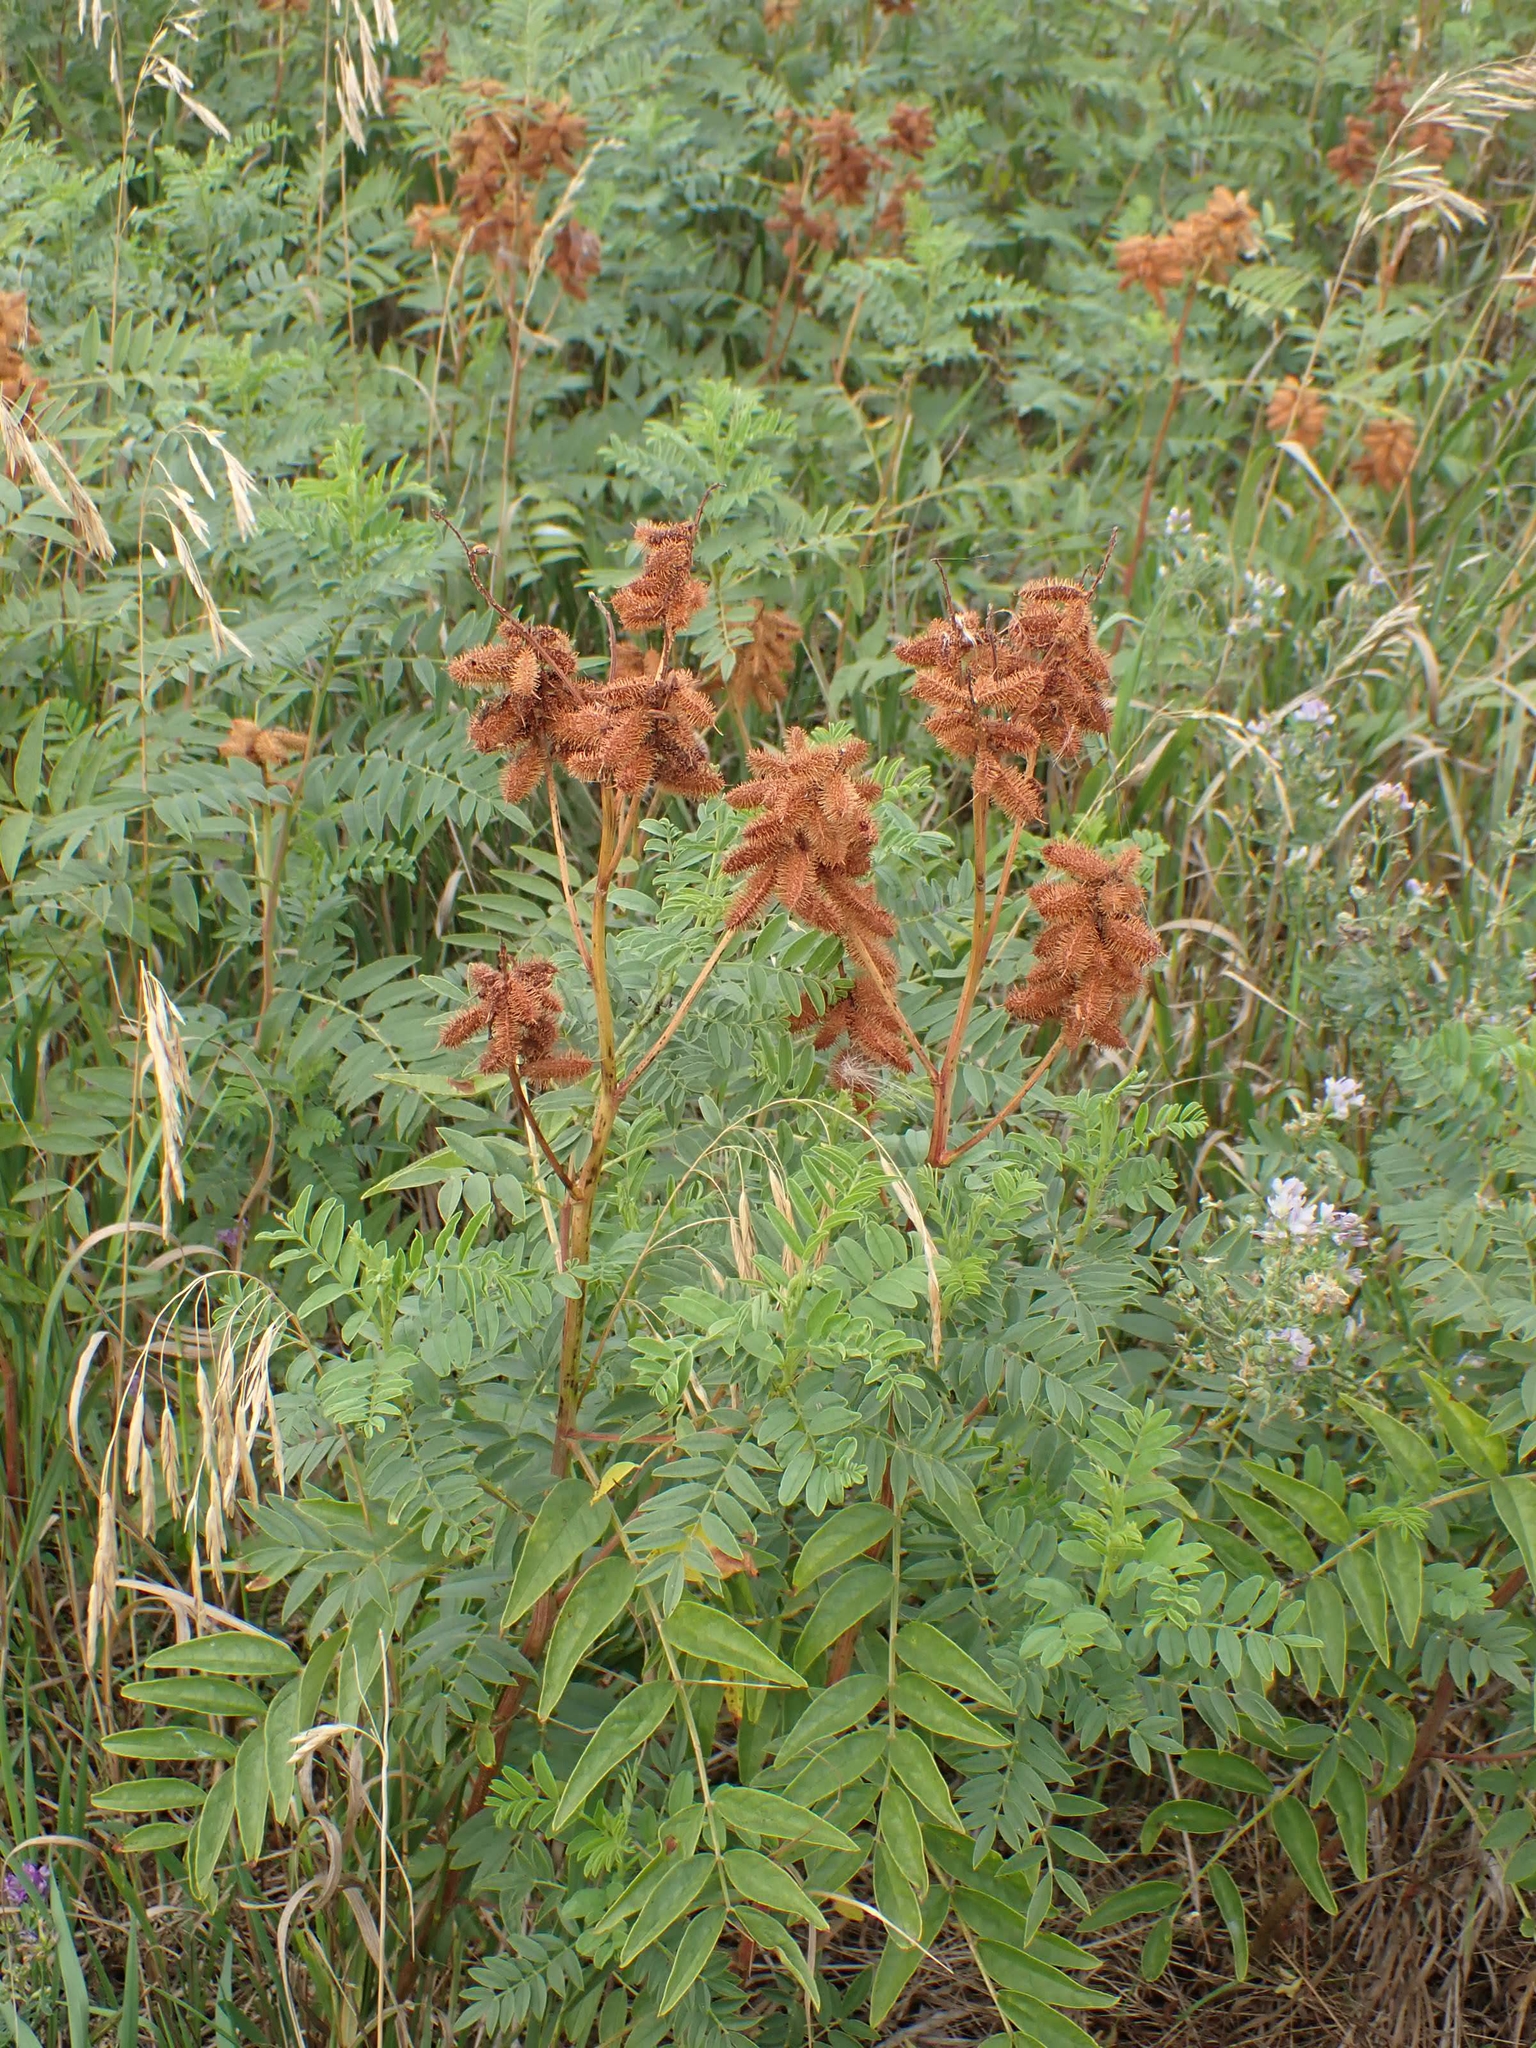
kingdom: Plantae
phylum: Tracheophyta
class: Magnoliopsida
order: Fabales
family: Fabaceae
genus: Glycyrrhiza
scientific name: Glycyrrhiza lepidota
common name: American liquorice
